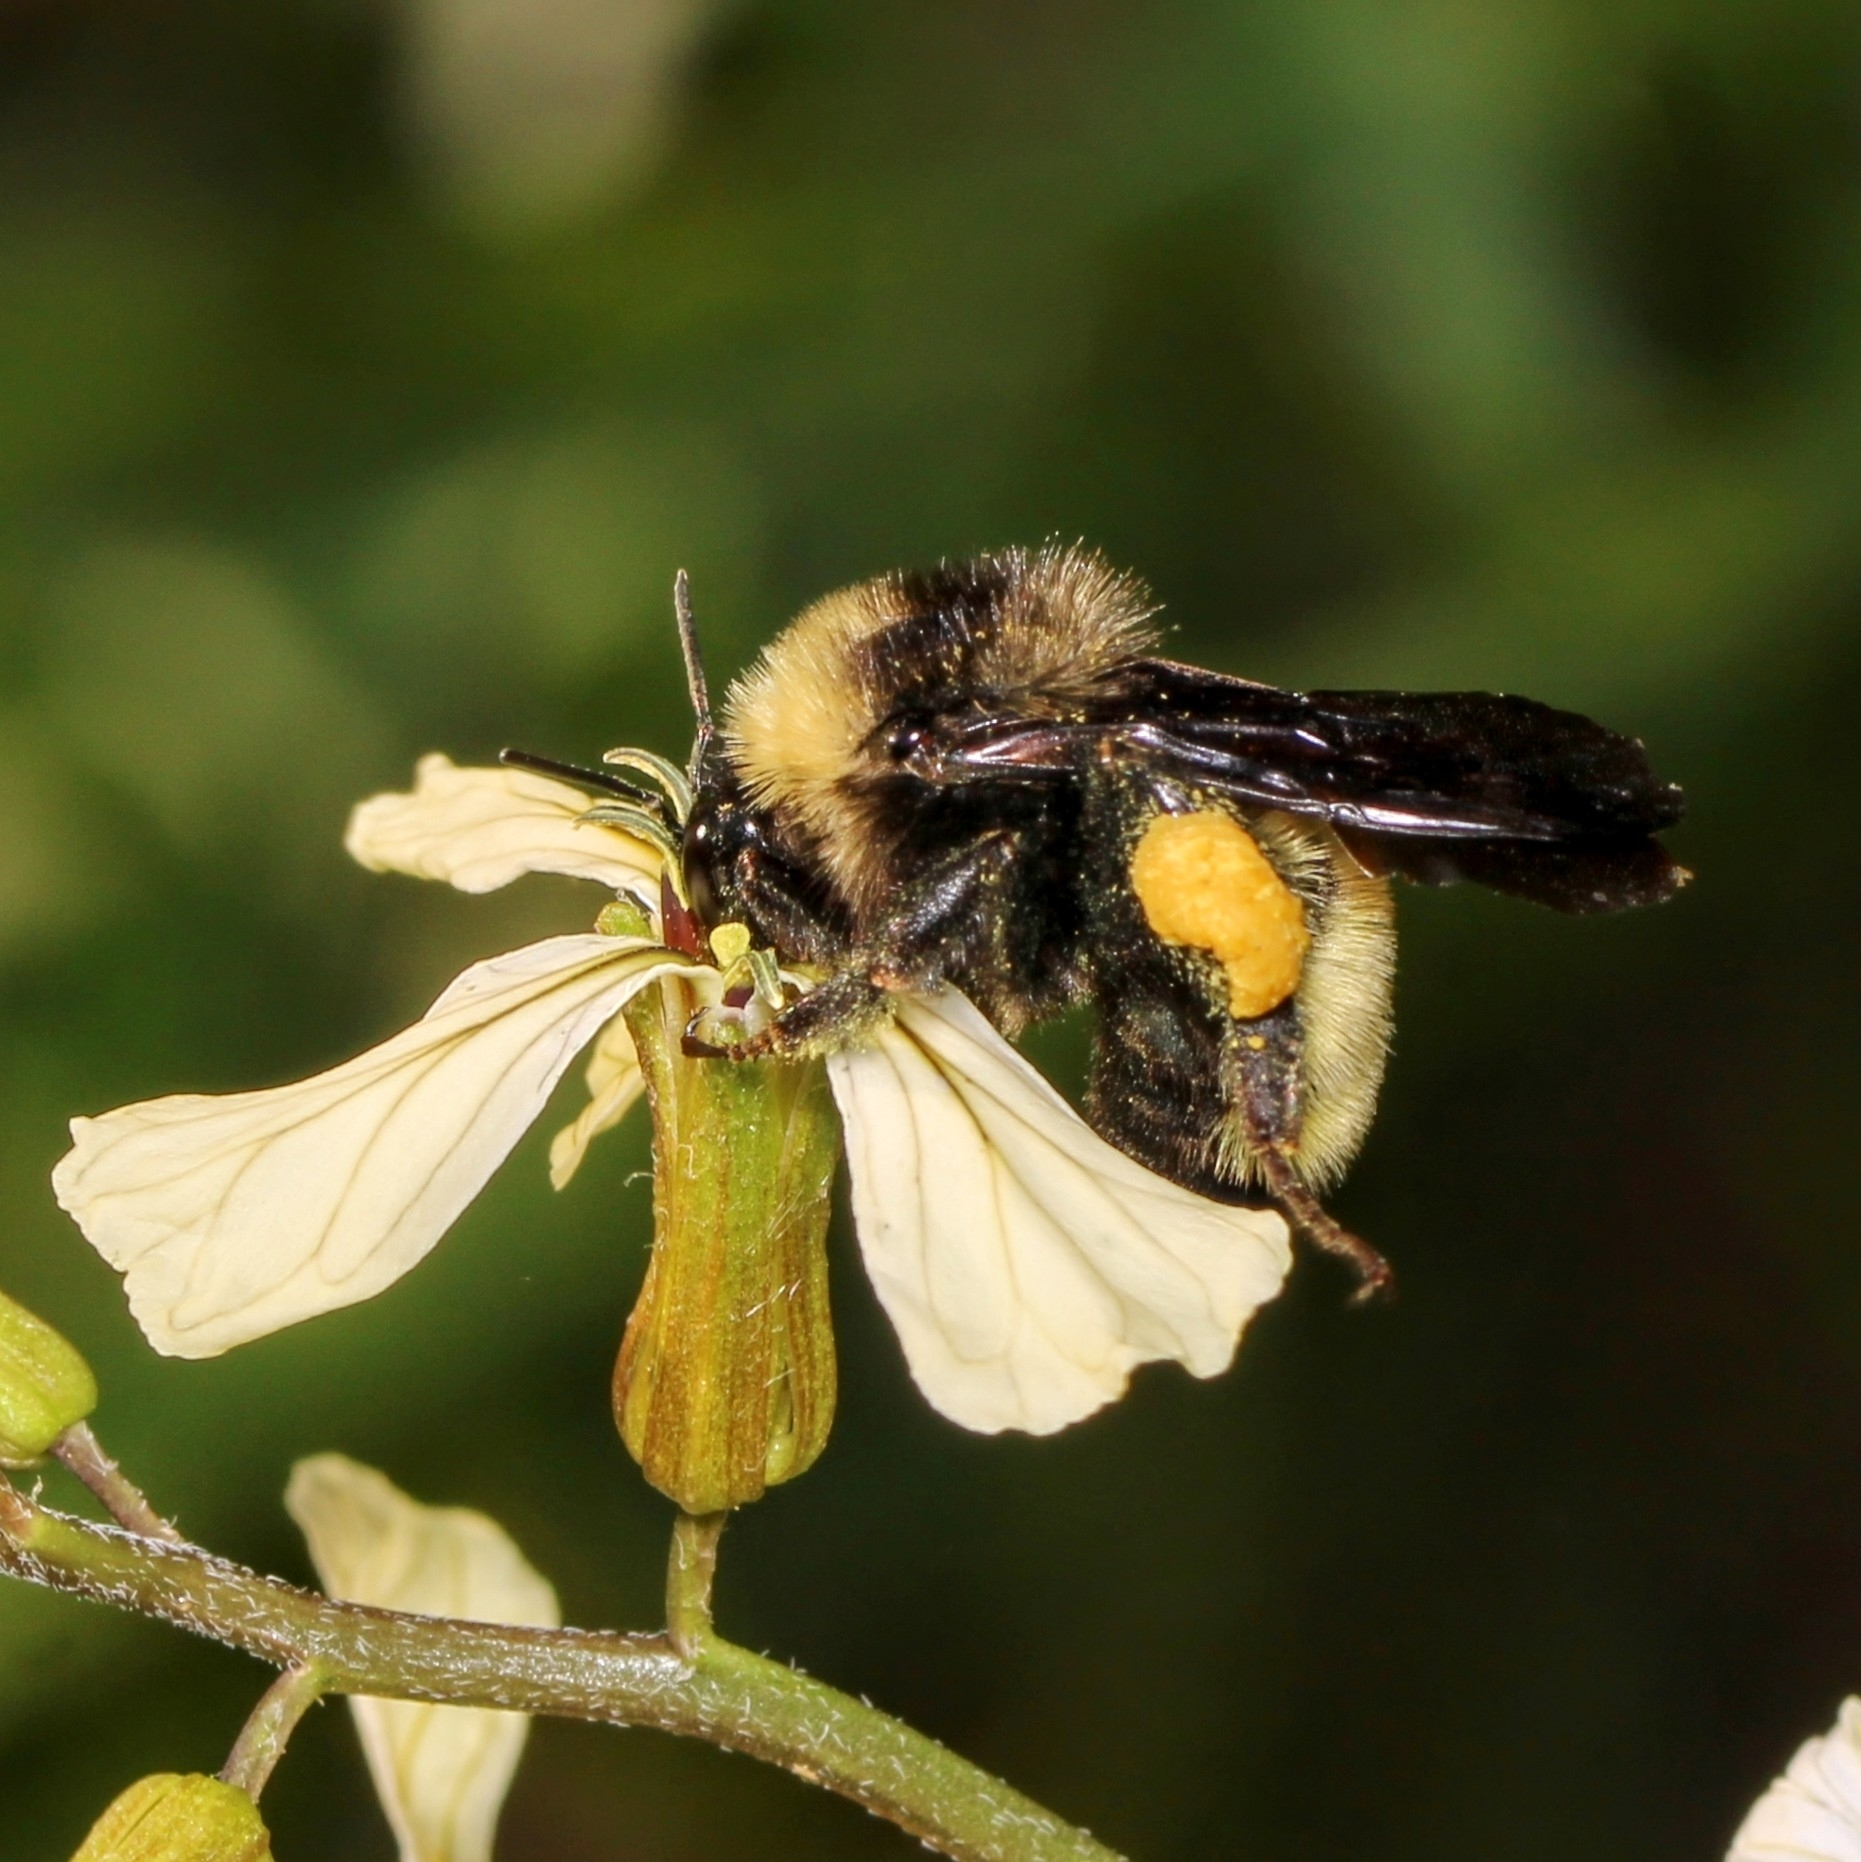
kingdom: Animalia
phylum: Arthropoda
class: Insecta
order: Hymenoptera
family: Apidae
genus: Bombus
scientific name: Bombus pensylvanicus
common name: Bumble bee
